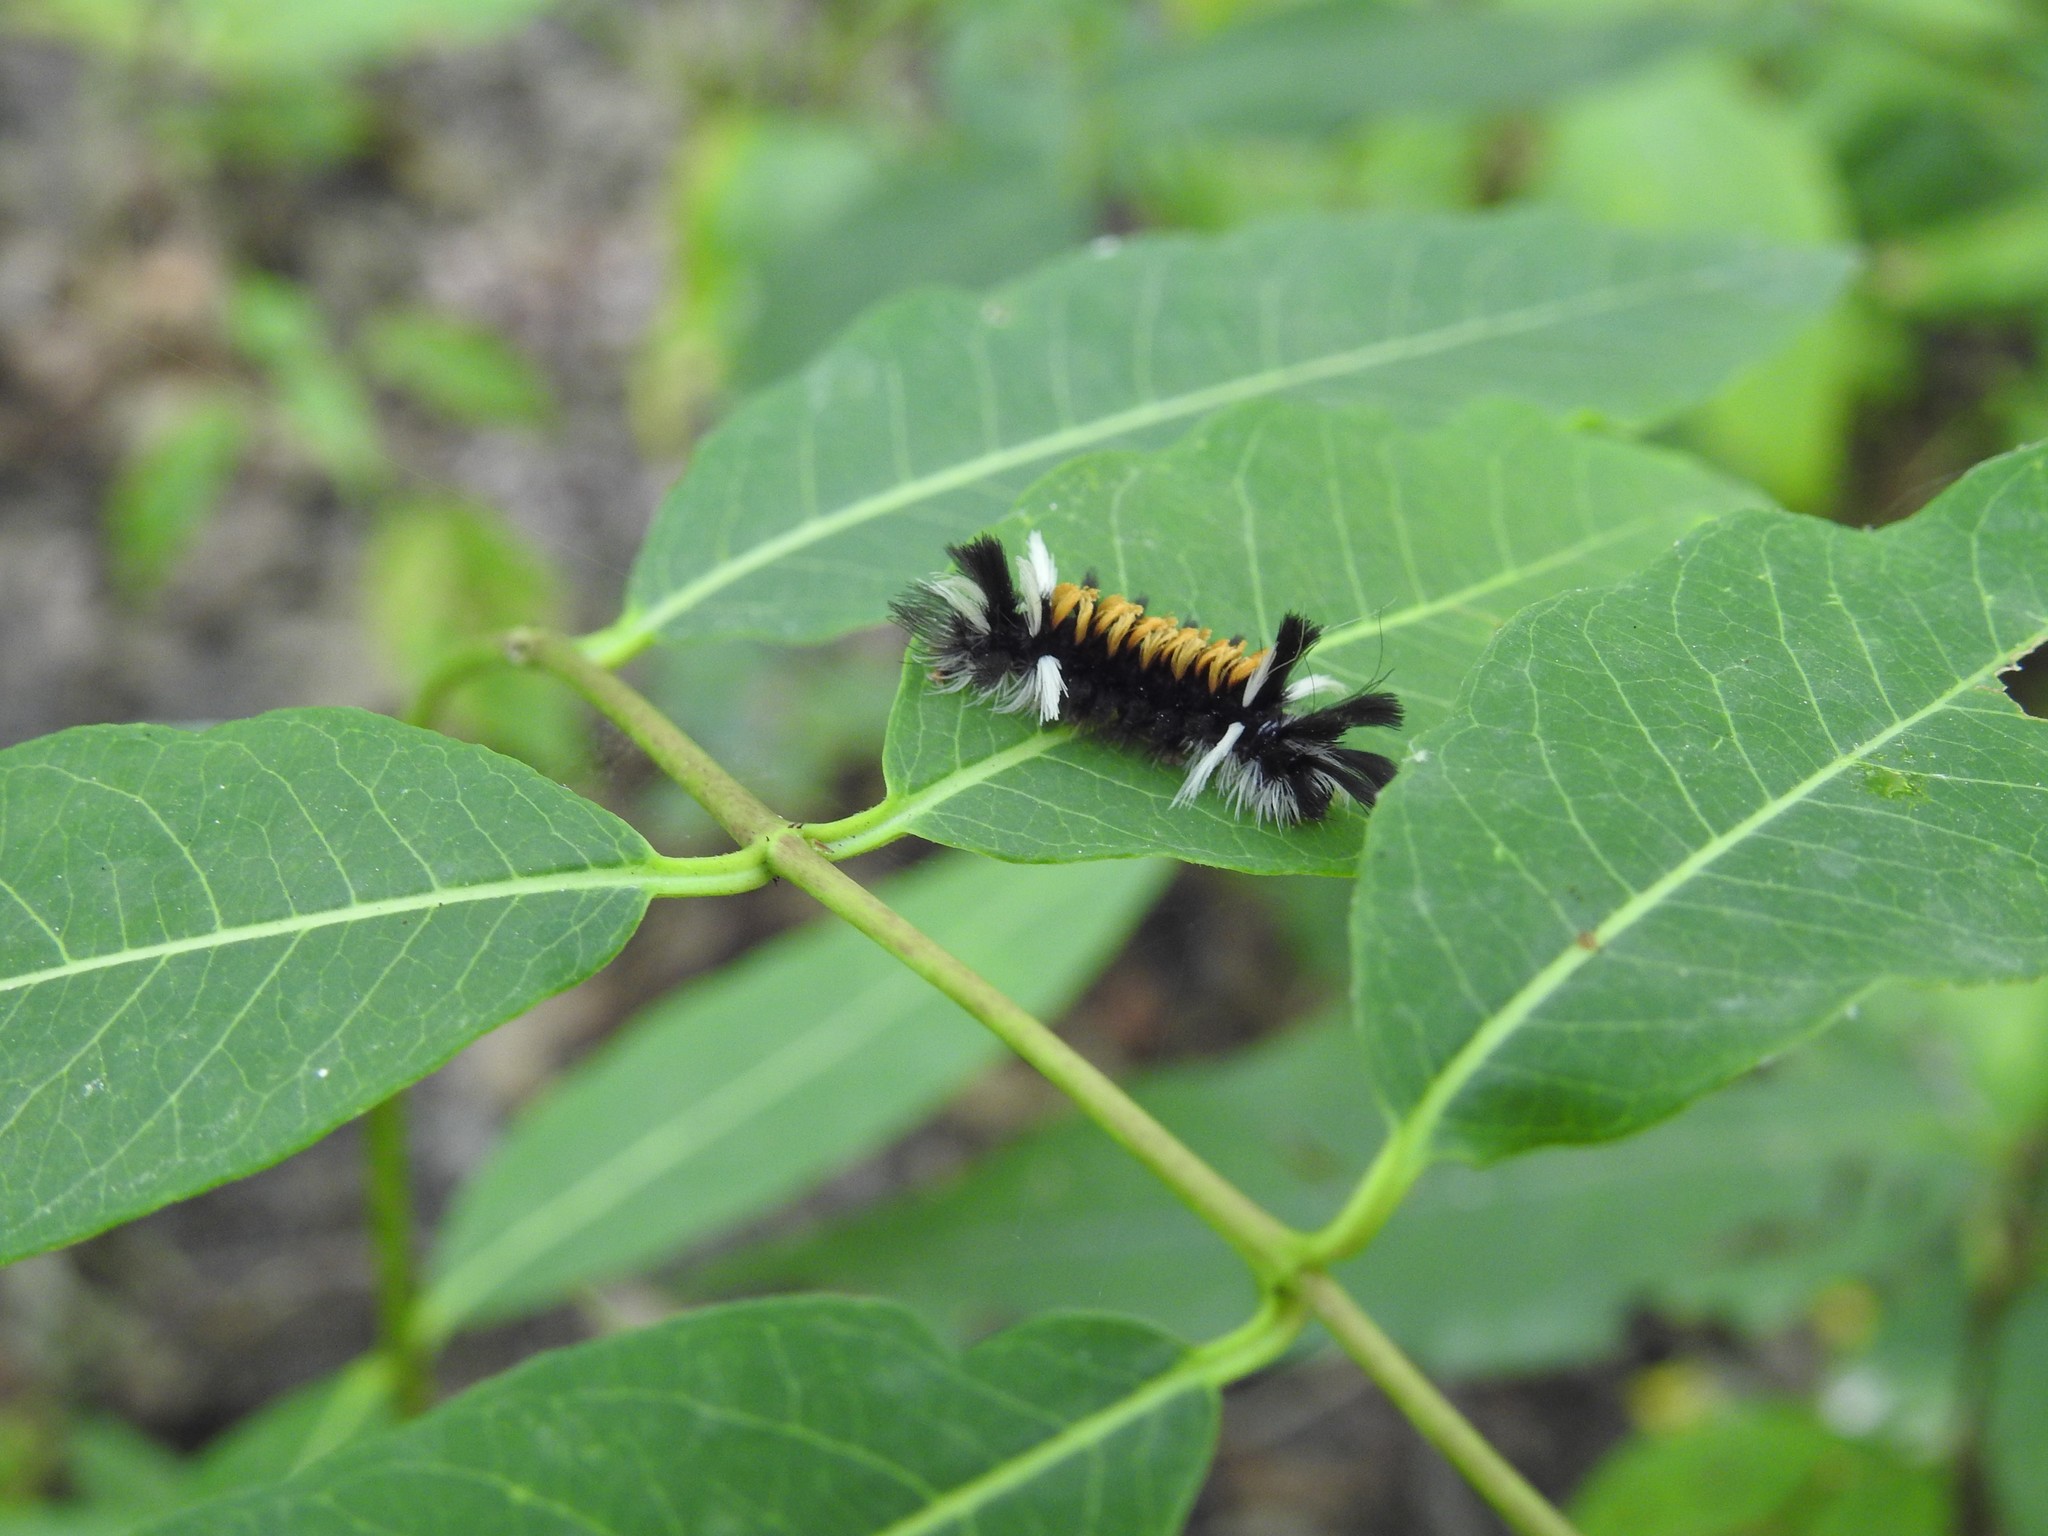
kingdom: Animalia
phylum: Arthropoda
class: Insecta
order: Lepidoptera
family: Erebidae
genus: Euchaetes
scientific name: Euchaetes egle
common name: Milkweed tussock moth
